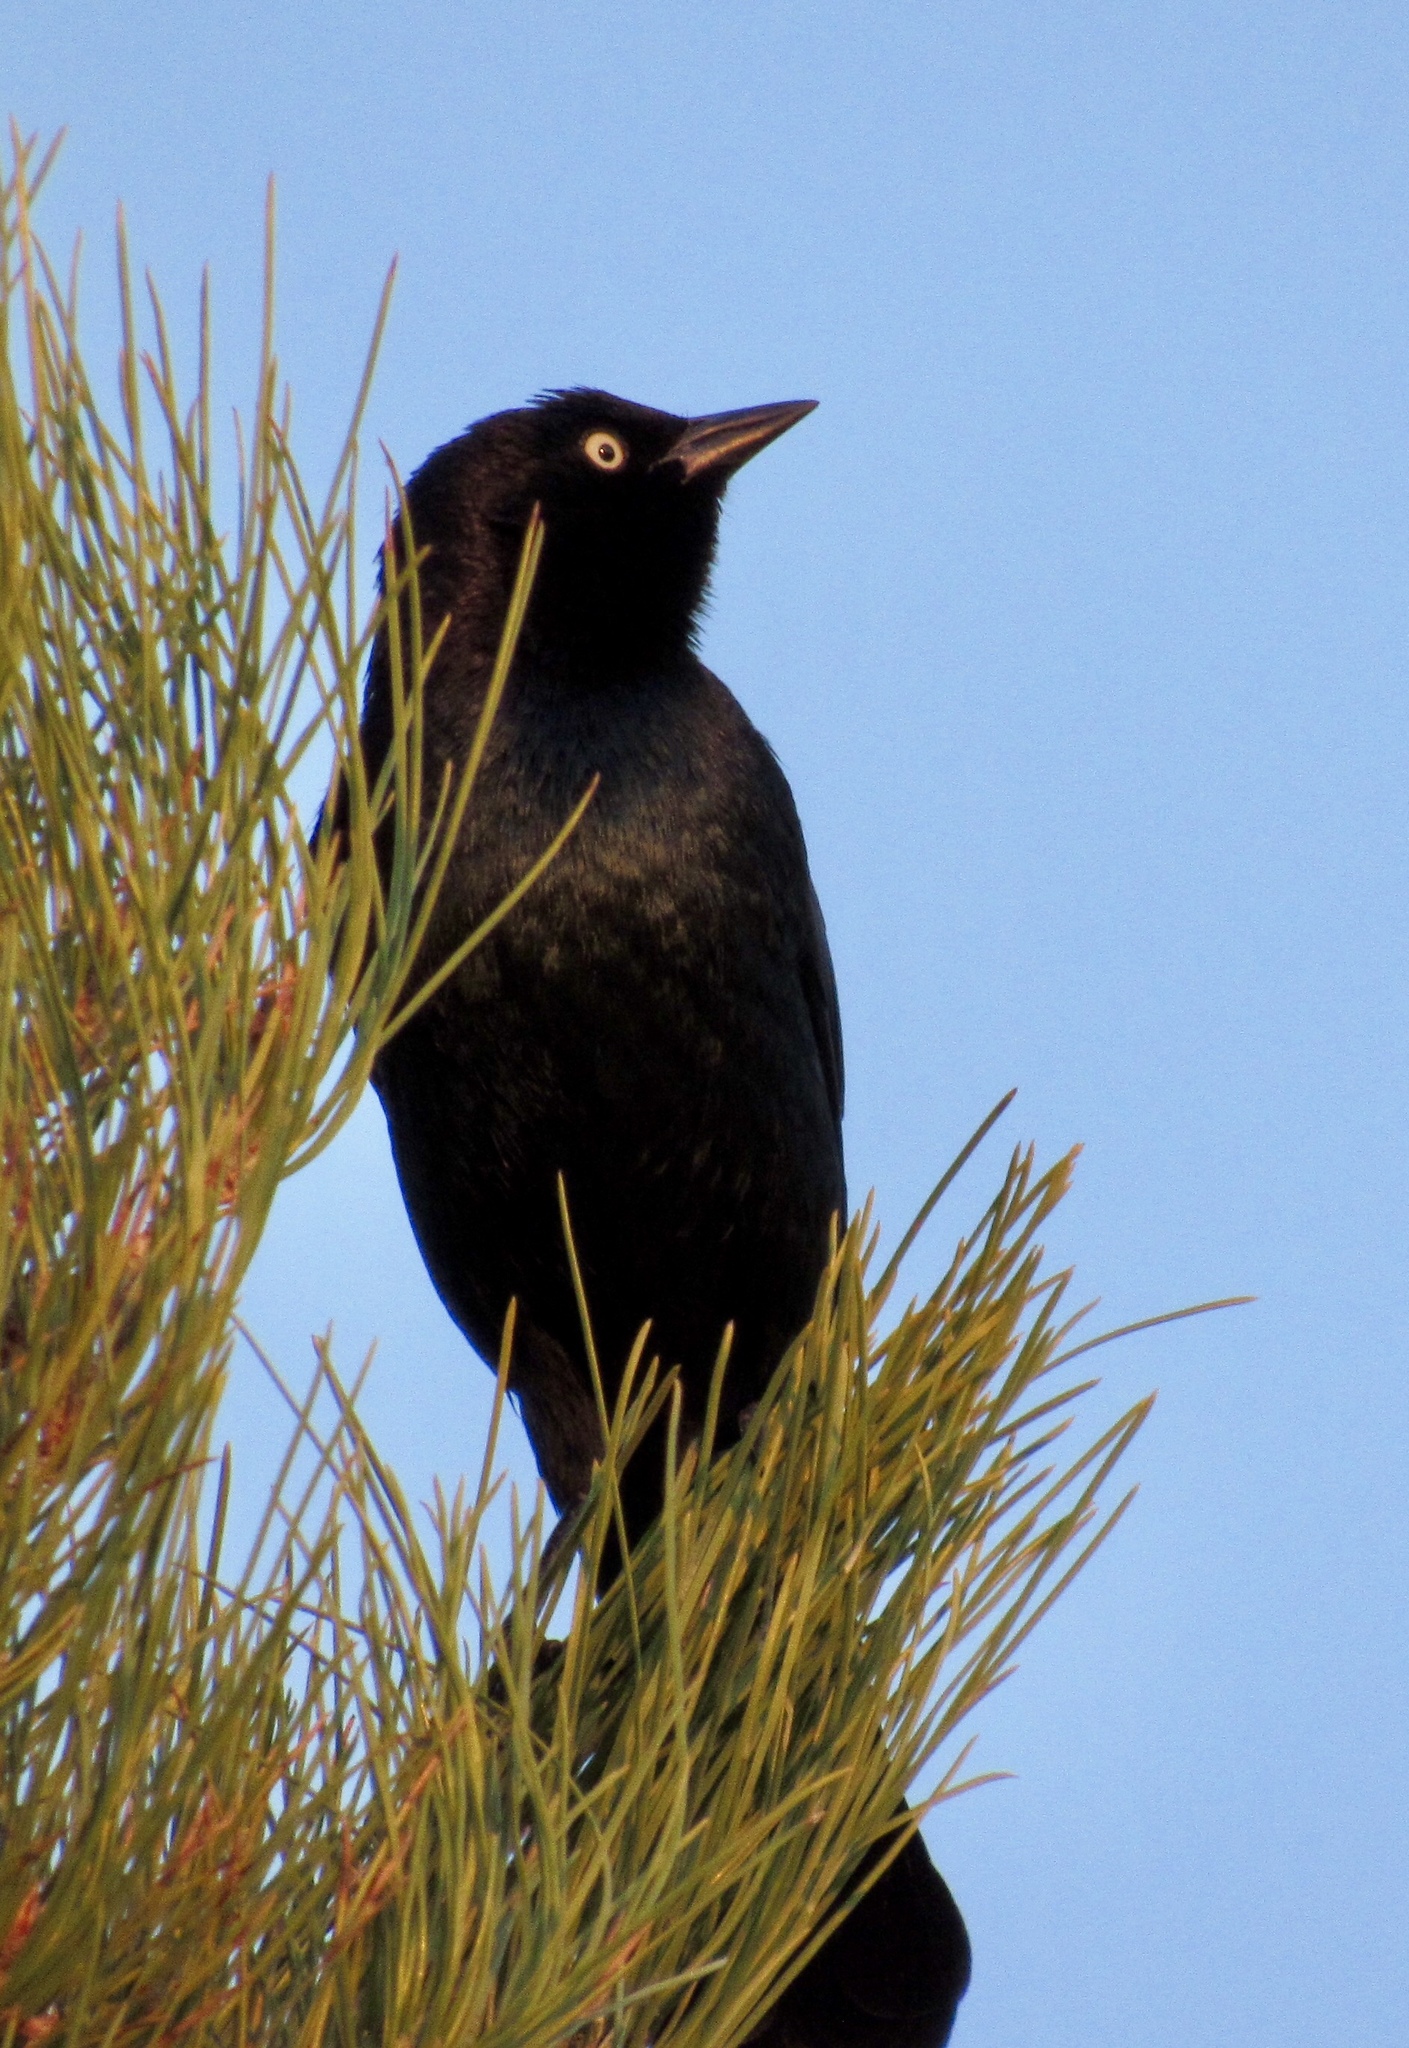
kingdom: Animalia
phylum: Chordata
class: Aves
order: Passeriformes
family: Icteridae
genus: Euphagus
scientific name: Euphagus cyanocephalus
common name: Brewer's blackbird
